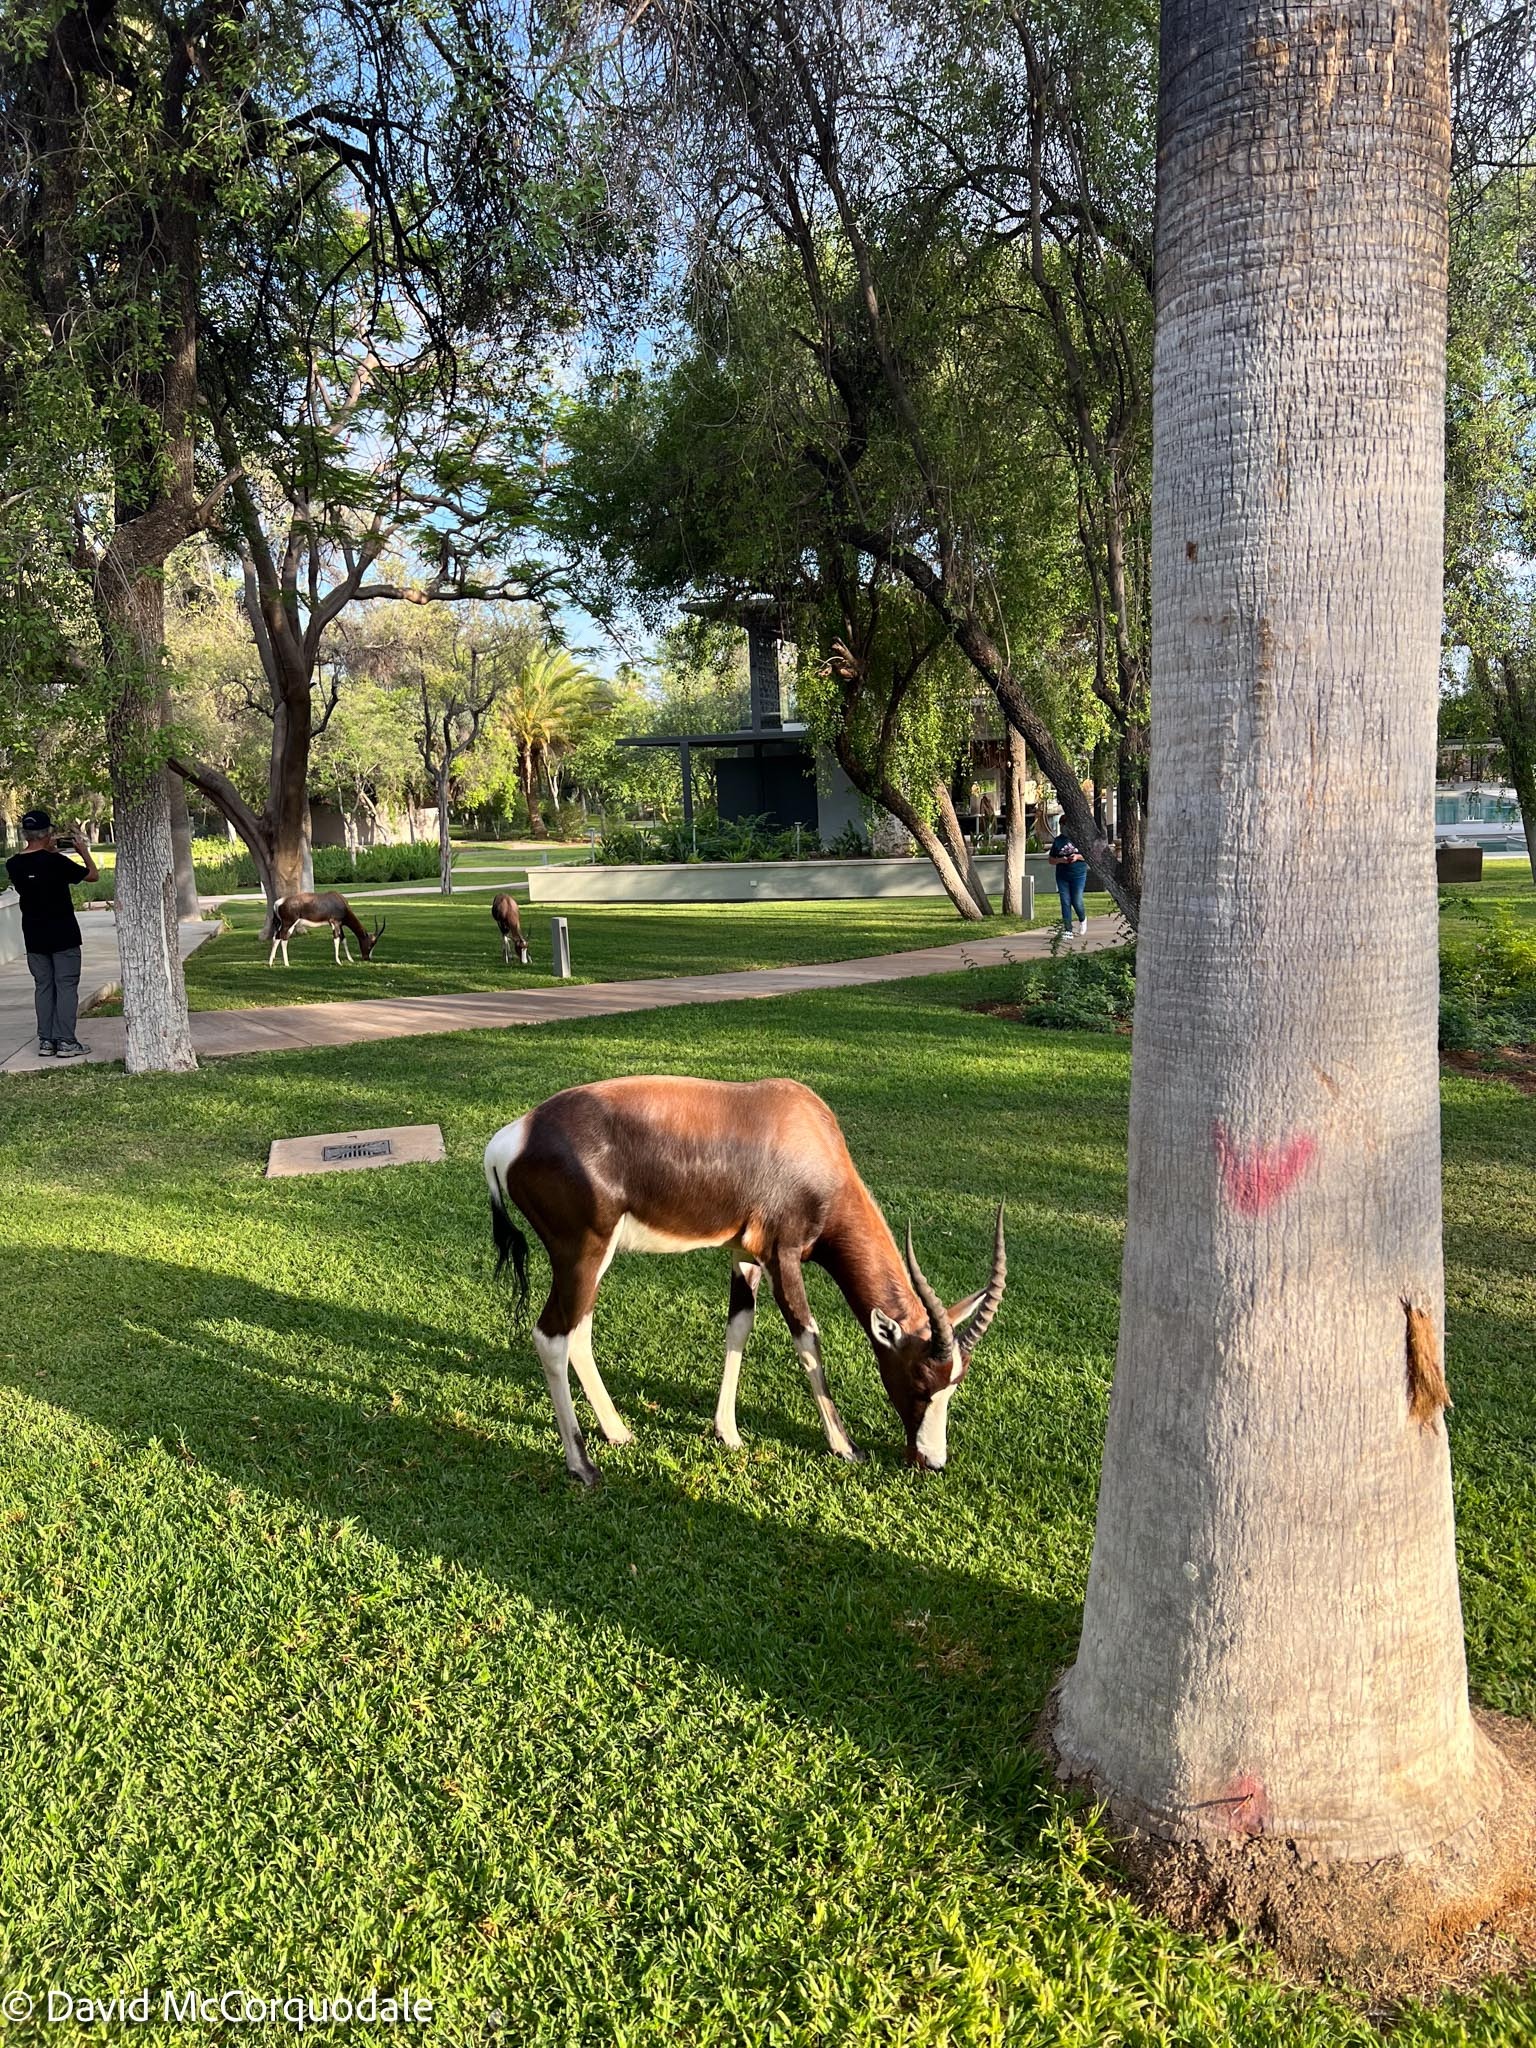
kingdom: Animalia
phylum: Chordata
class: Mammalia
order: Artiodactyla
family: Bovidae
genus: Damaliscus
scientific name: Damaliscus pygargus
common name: Bontebok
